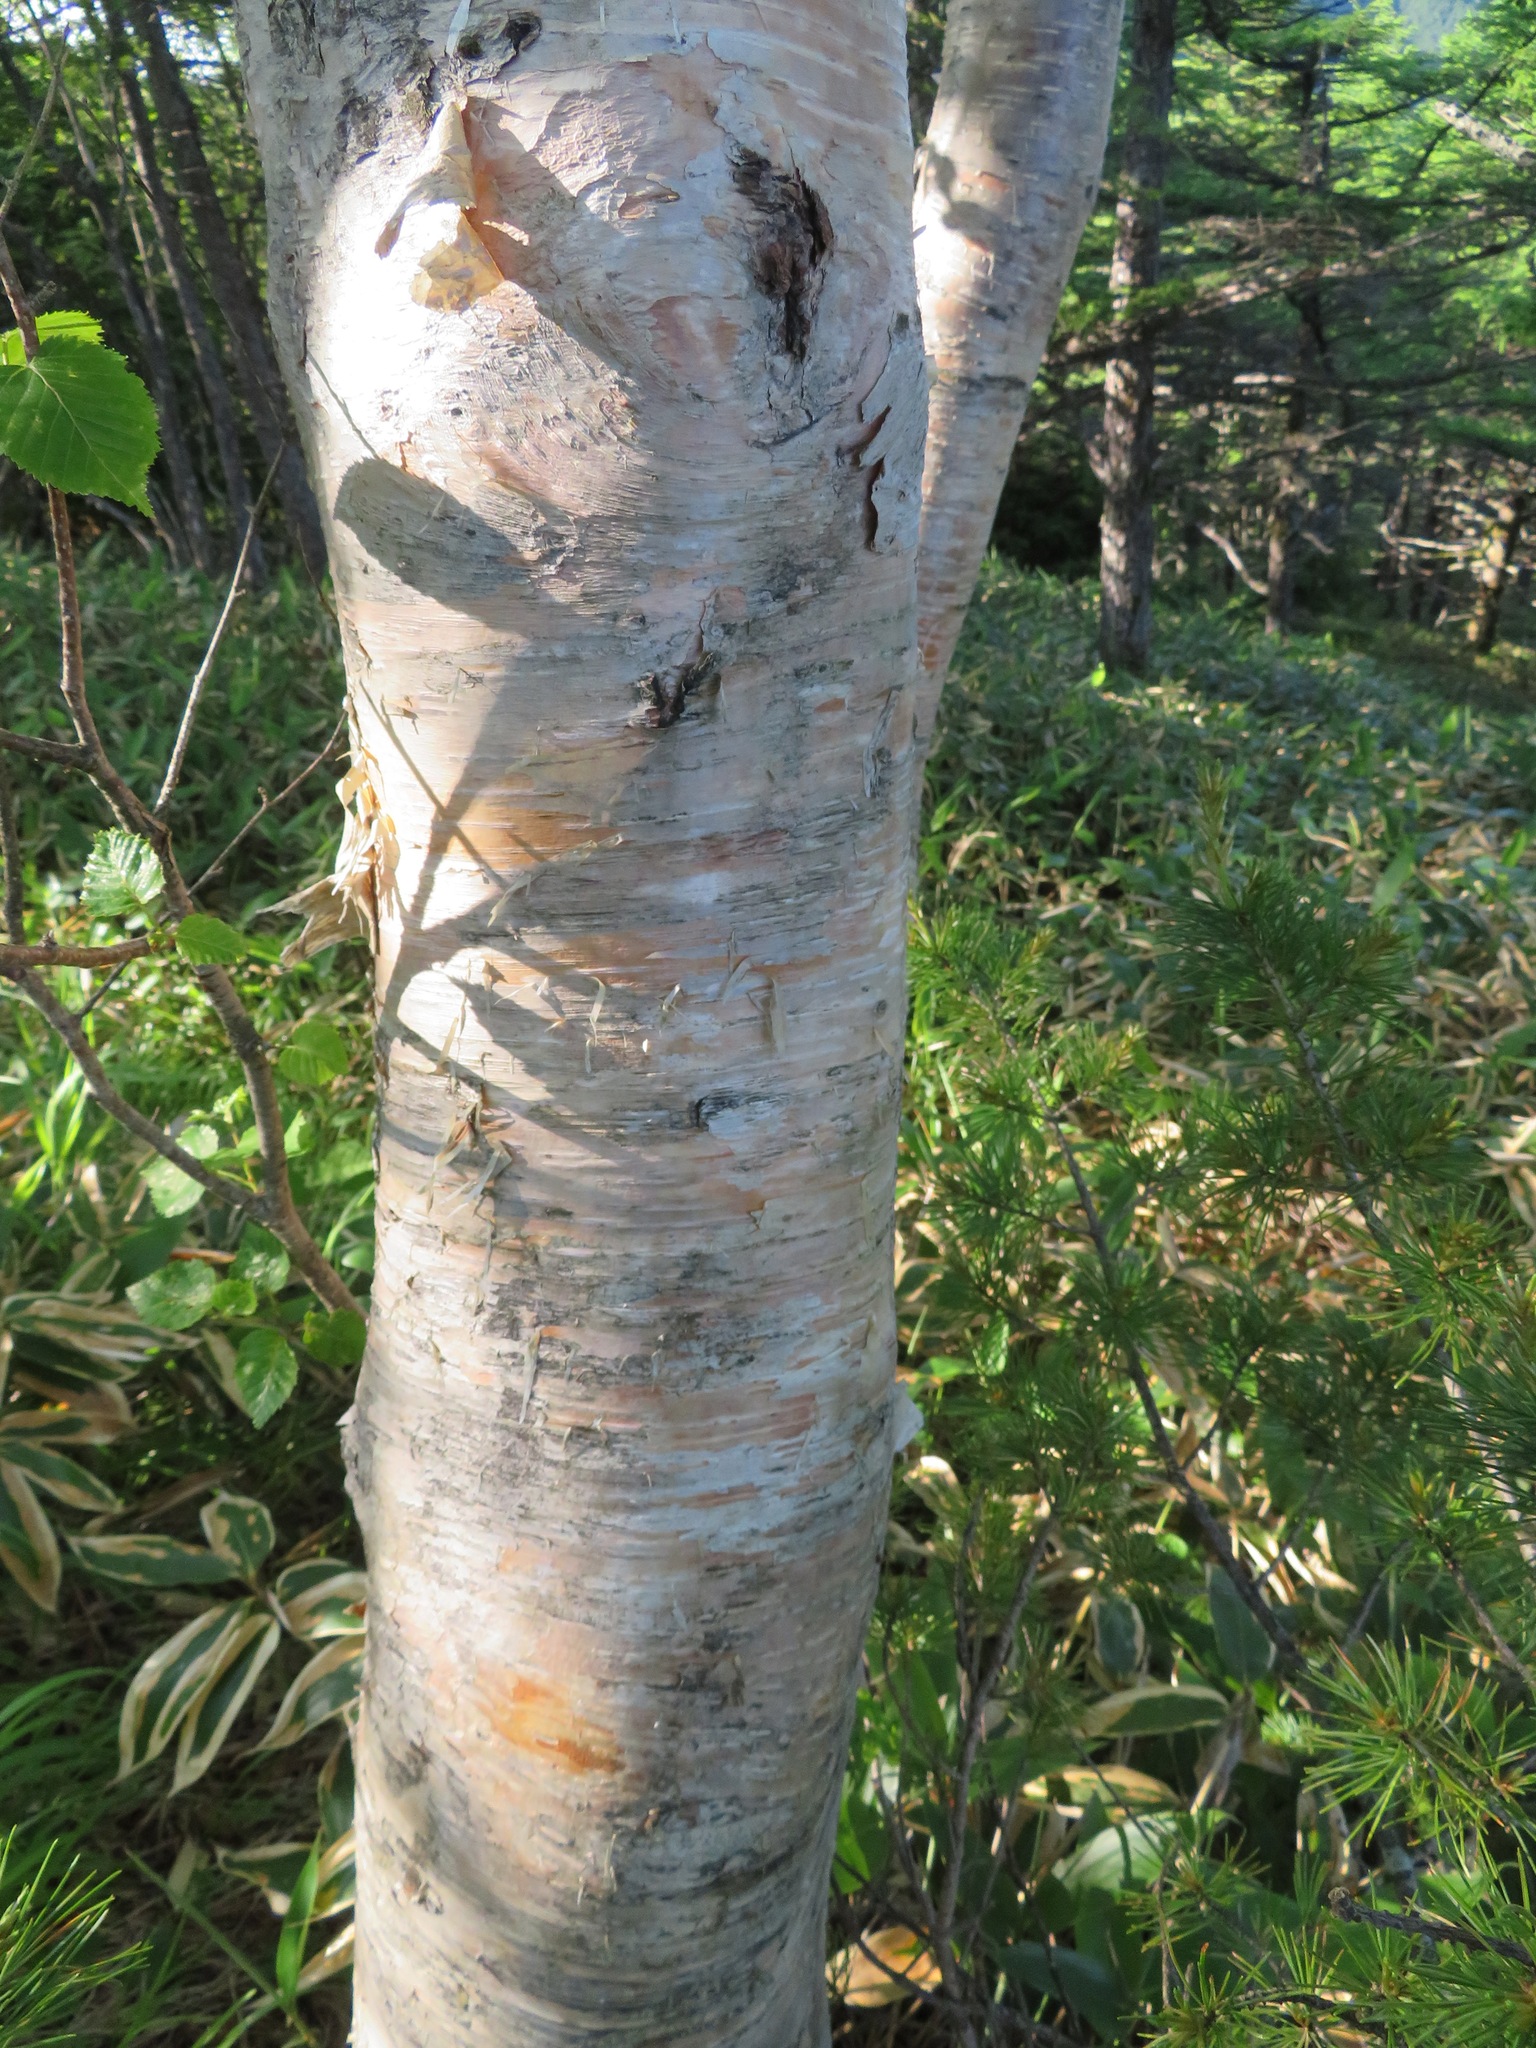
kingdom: Plantae
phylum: Tracheophyta
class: Magnoliopsida
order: Fagales
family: Betulaceae
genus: Betula
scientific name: Betula ermanii
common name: Erman's birch
